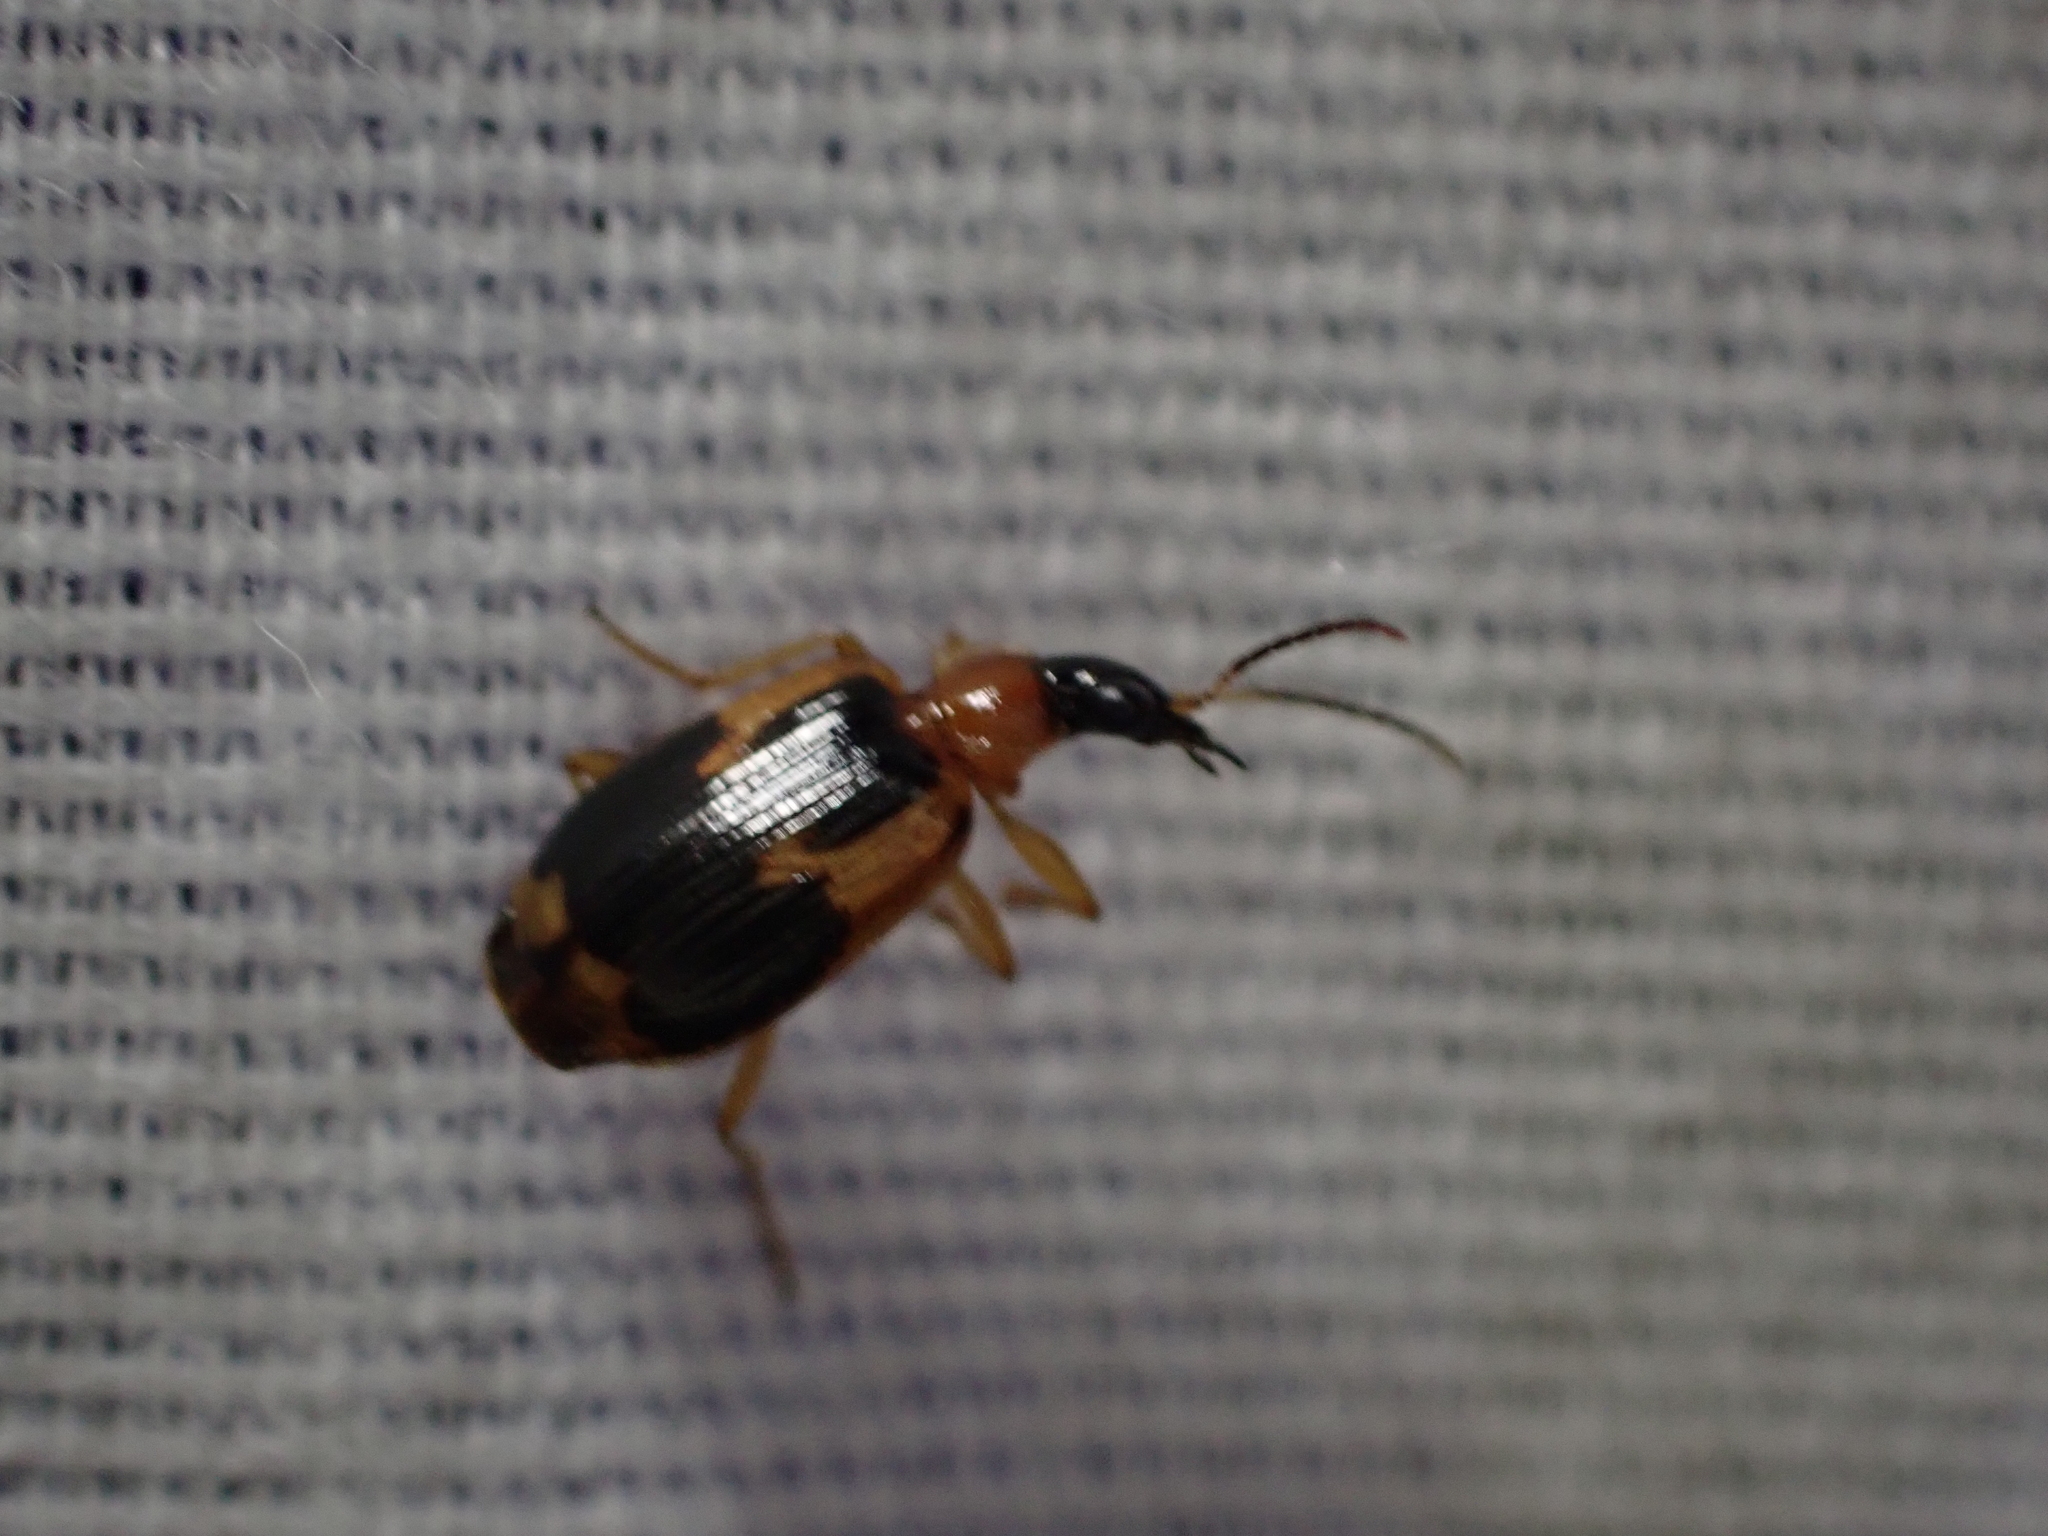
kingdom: Animalia
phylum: Arthropoda
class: Insecta
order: Coleoptera
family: Carabidae
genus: Lebia
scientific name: Lebia analis
